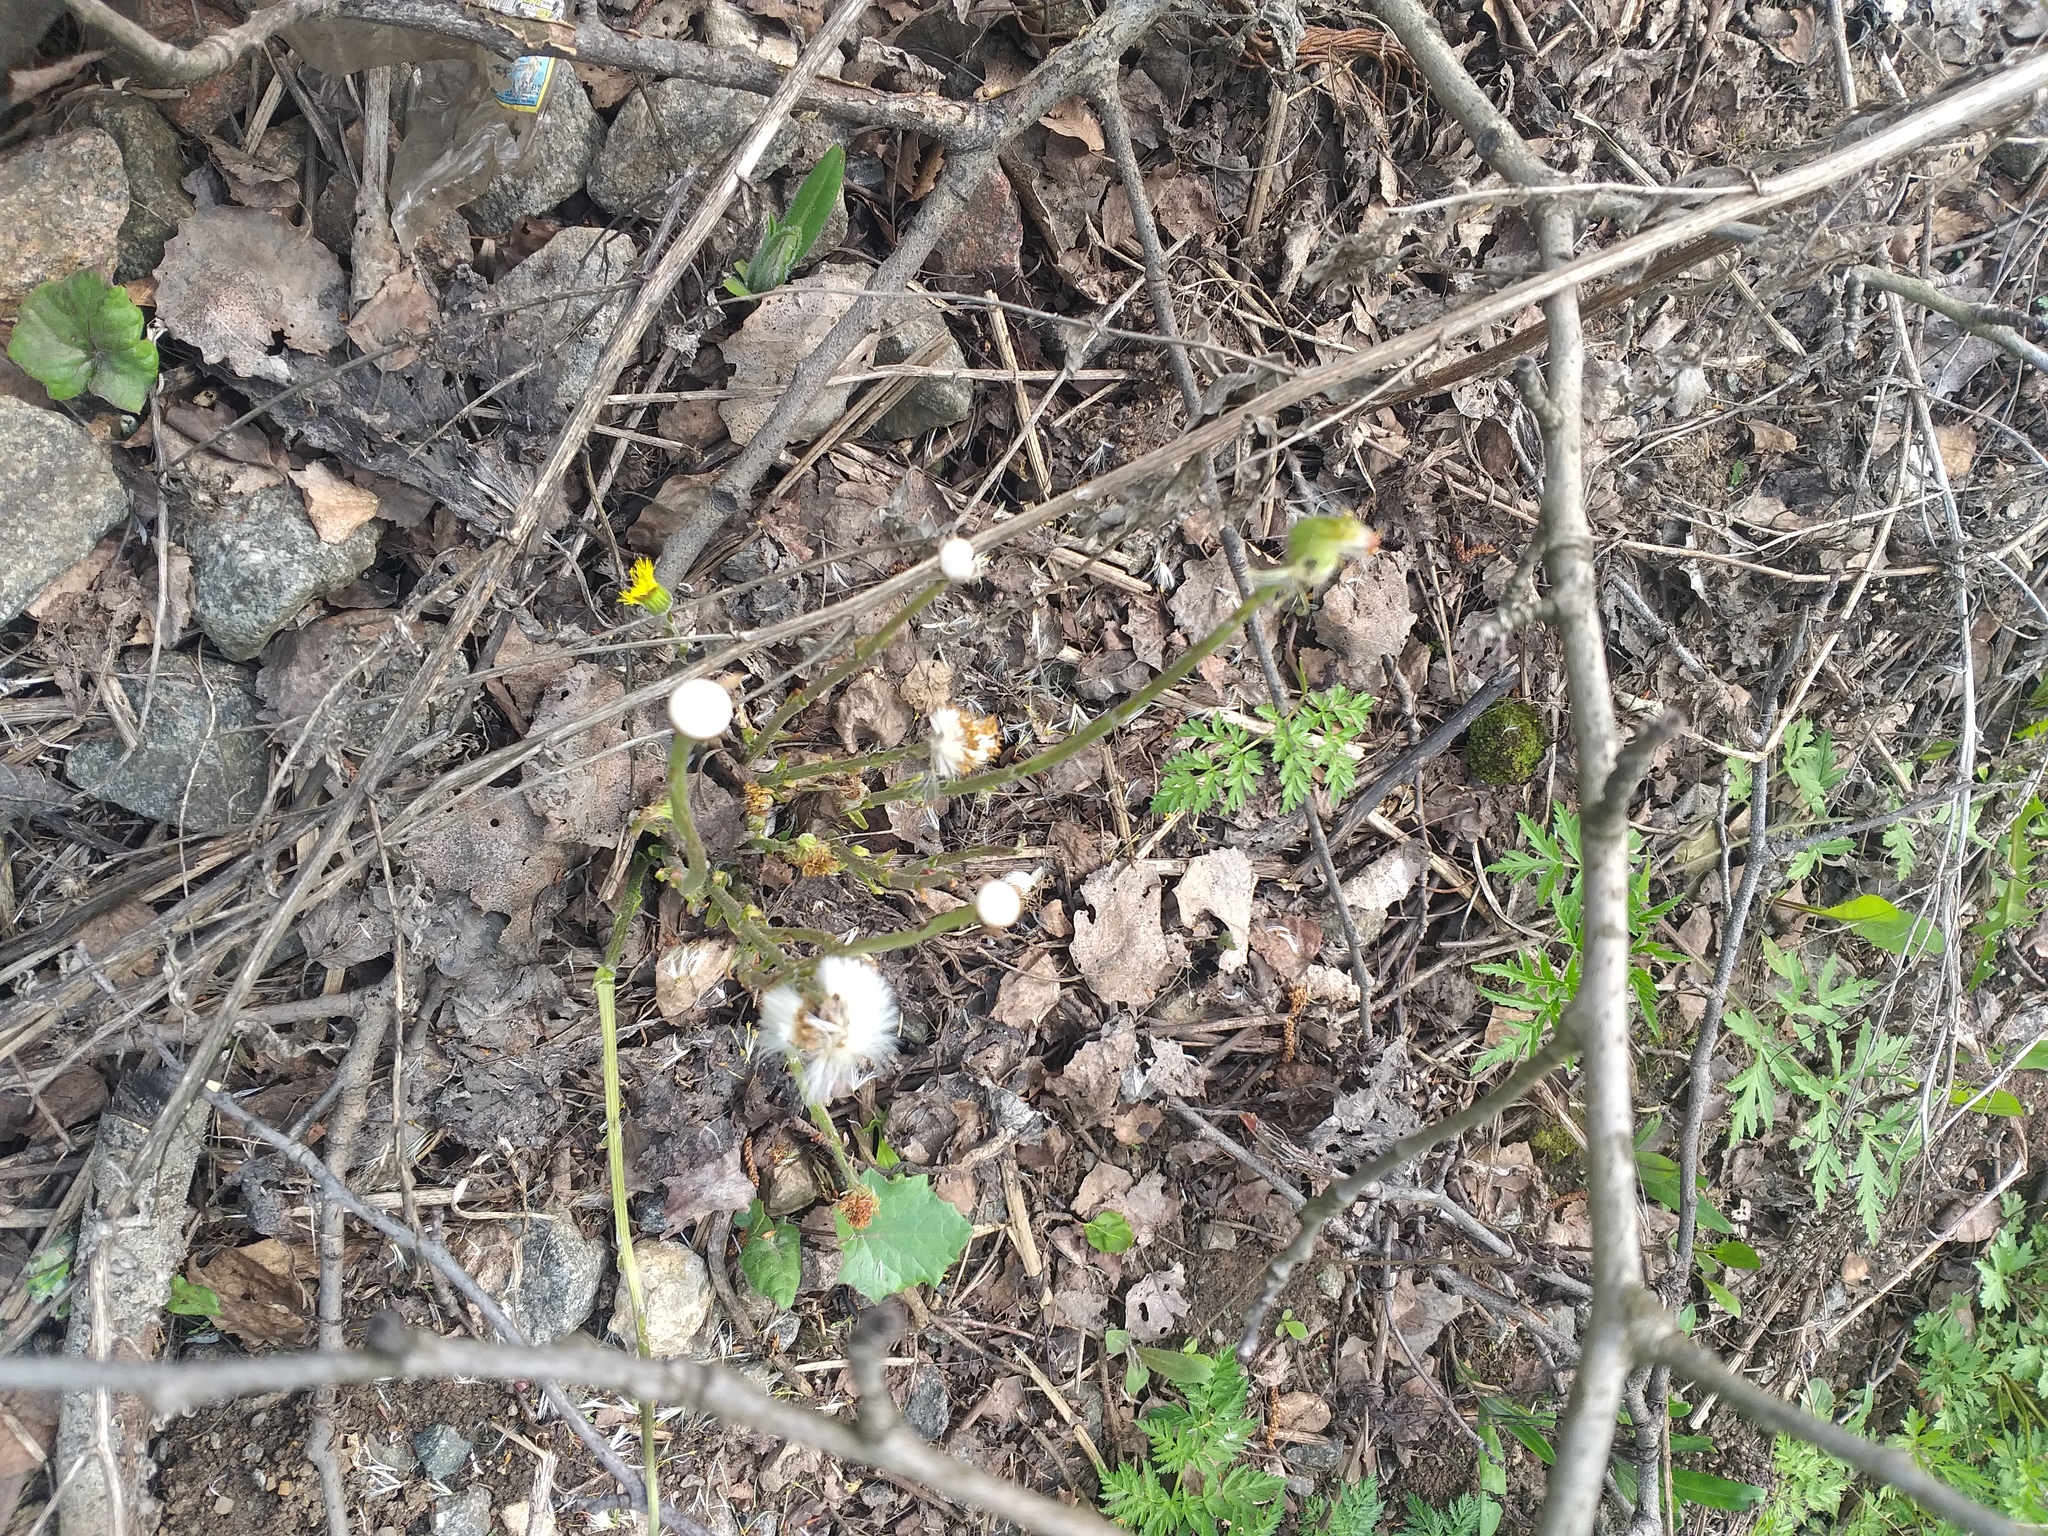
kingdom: Plantae
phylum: Tracheophyta
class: Magnoliopsida
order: Asterales
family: Asteraceae
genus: Tussilago
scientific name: Tussilago farfara
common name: Coltsfoot
